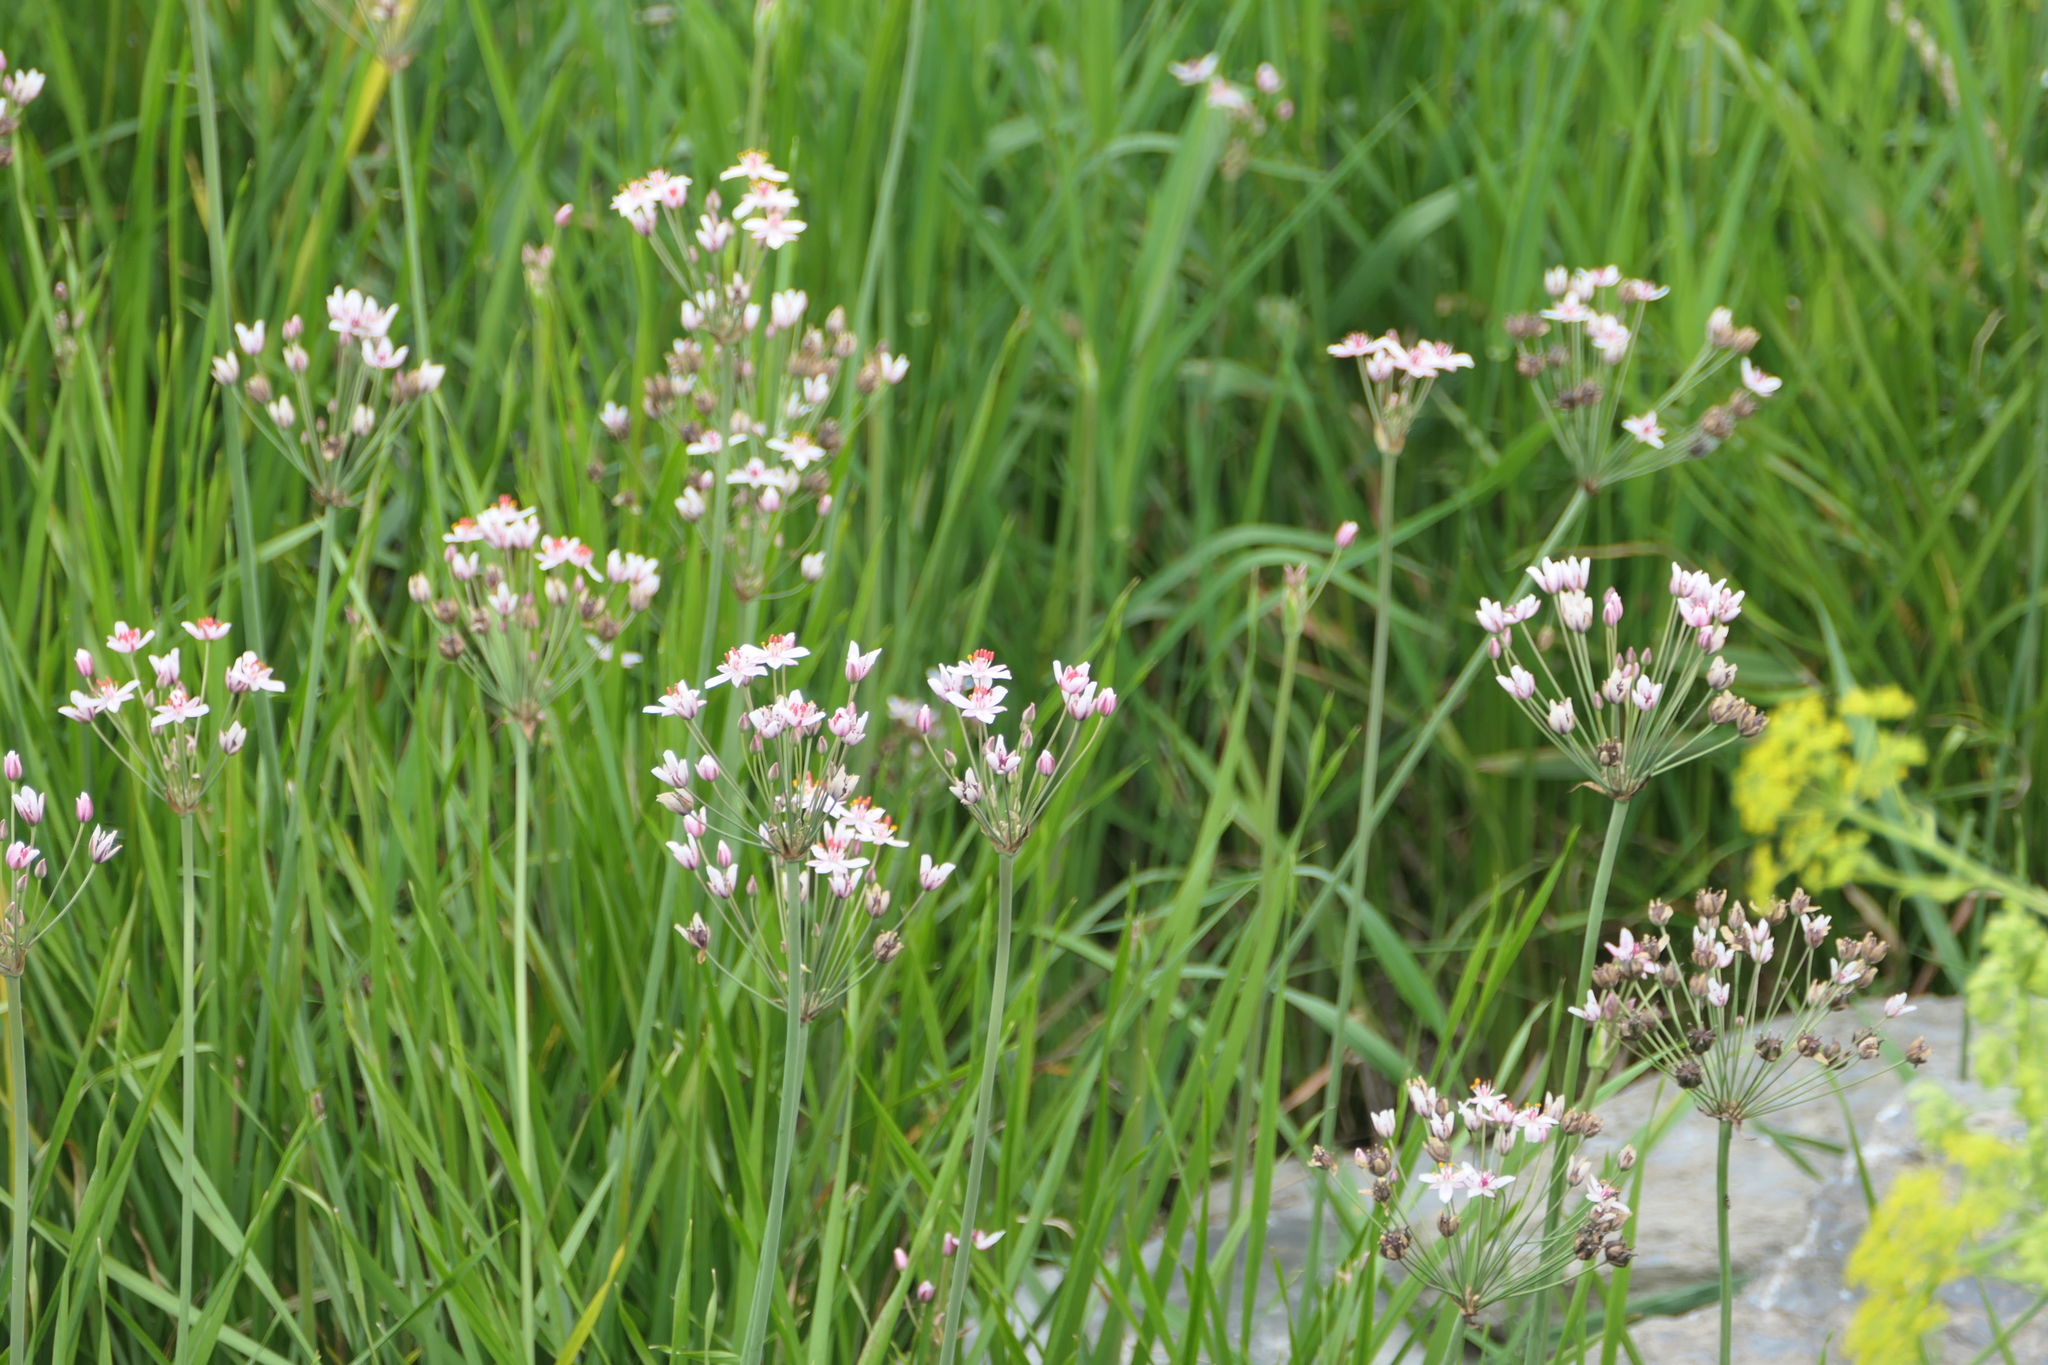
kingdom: Plantae
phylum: Tracheophyta
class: Liliopsida
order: Alismatales
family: Butomaceae
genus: Butomus
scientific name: Butomus umbellatus
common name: Flowering-rush
